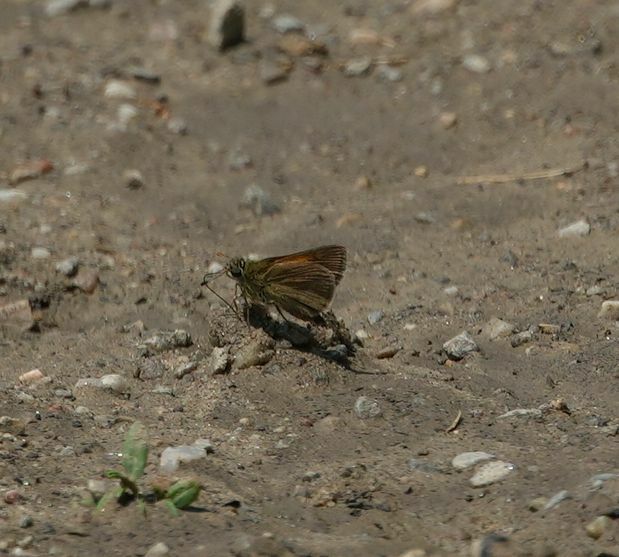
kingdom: Animalia
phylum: Arthropoda
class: Insecta
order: Lepidoptera
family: Hesperiidae
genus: Polites
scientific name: Polites themistocles
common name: Tawny-edged skipper
